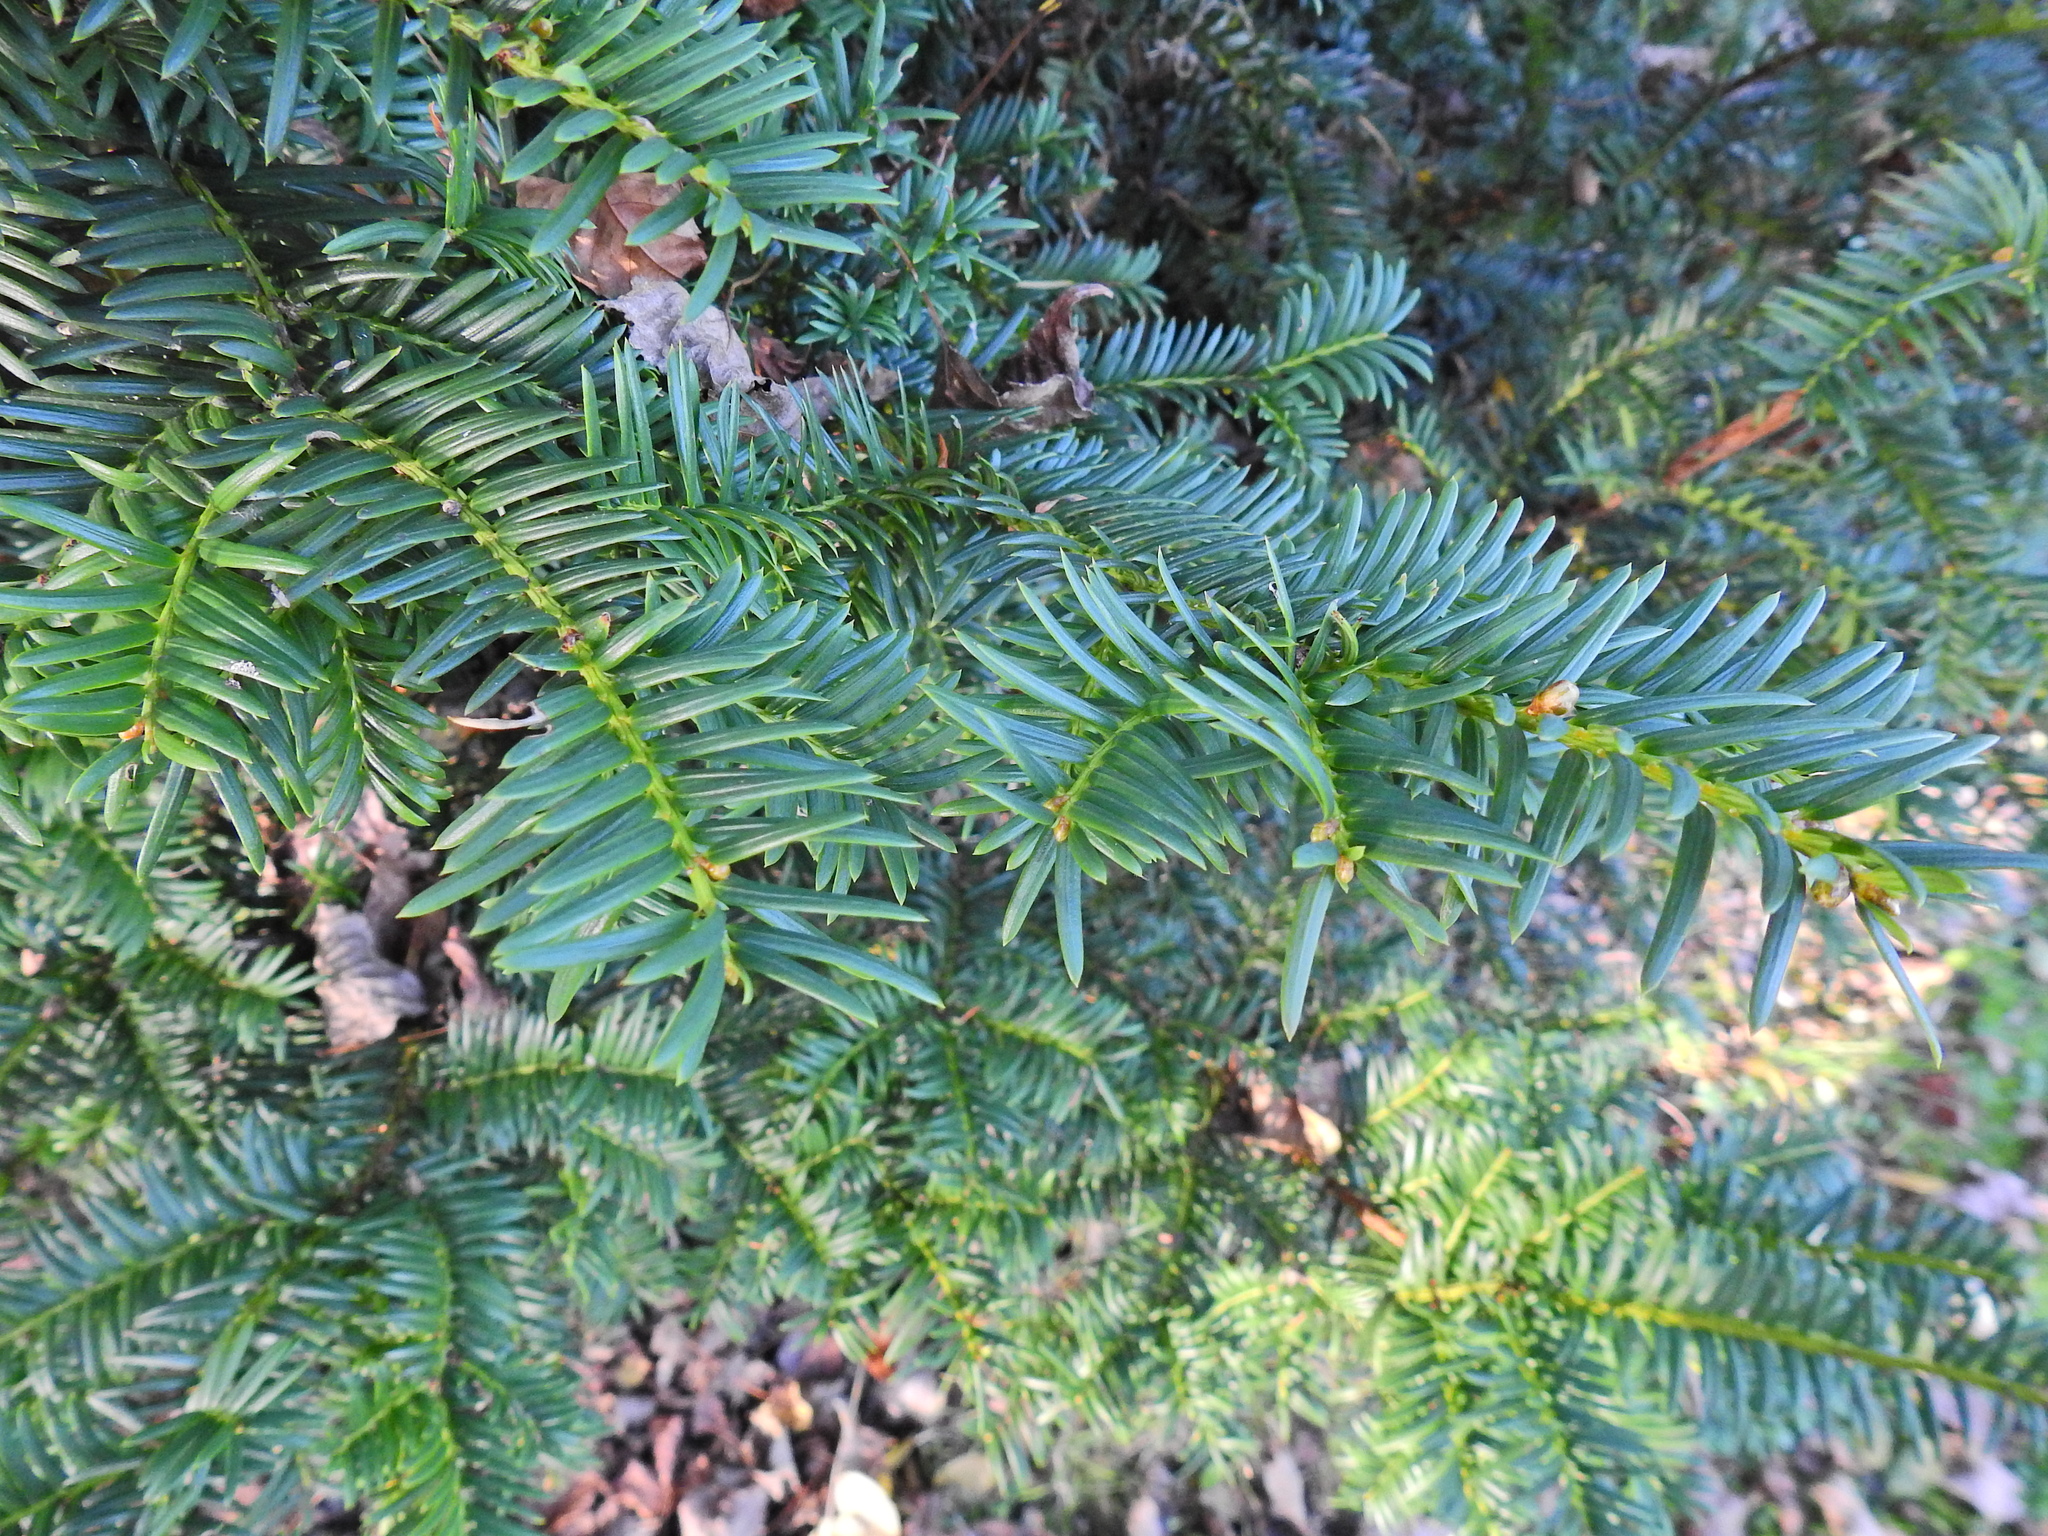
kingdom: Plantae
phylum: Tracheophyta
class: Pinopsida
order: Pinales
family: Taxaceae
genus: Taxus
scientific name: Taxus baccata
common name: Yew
